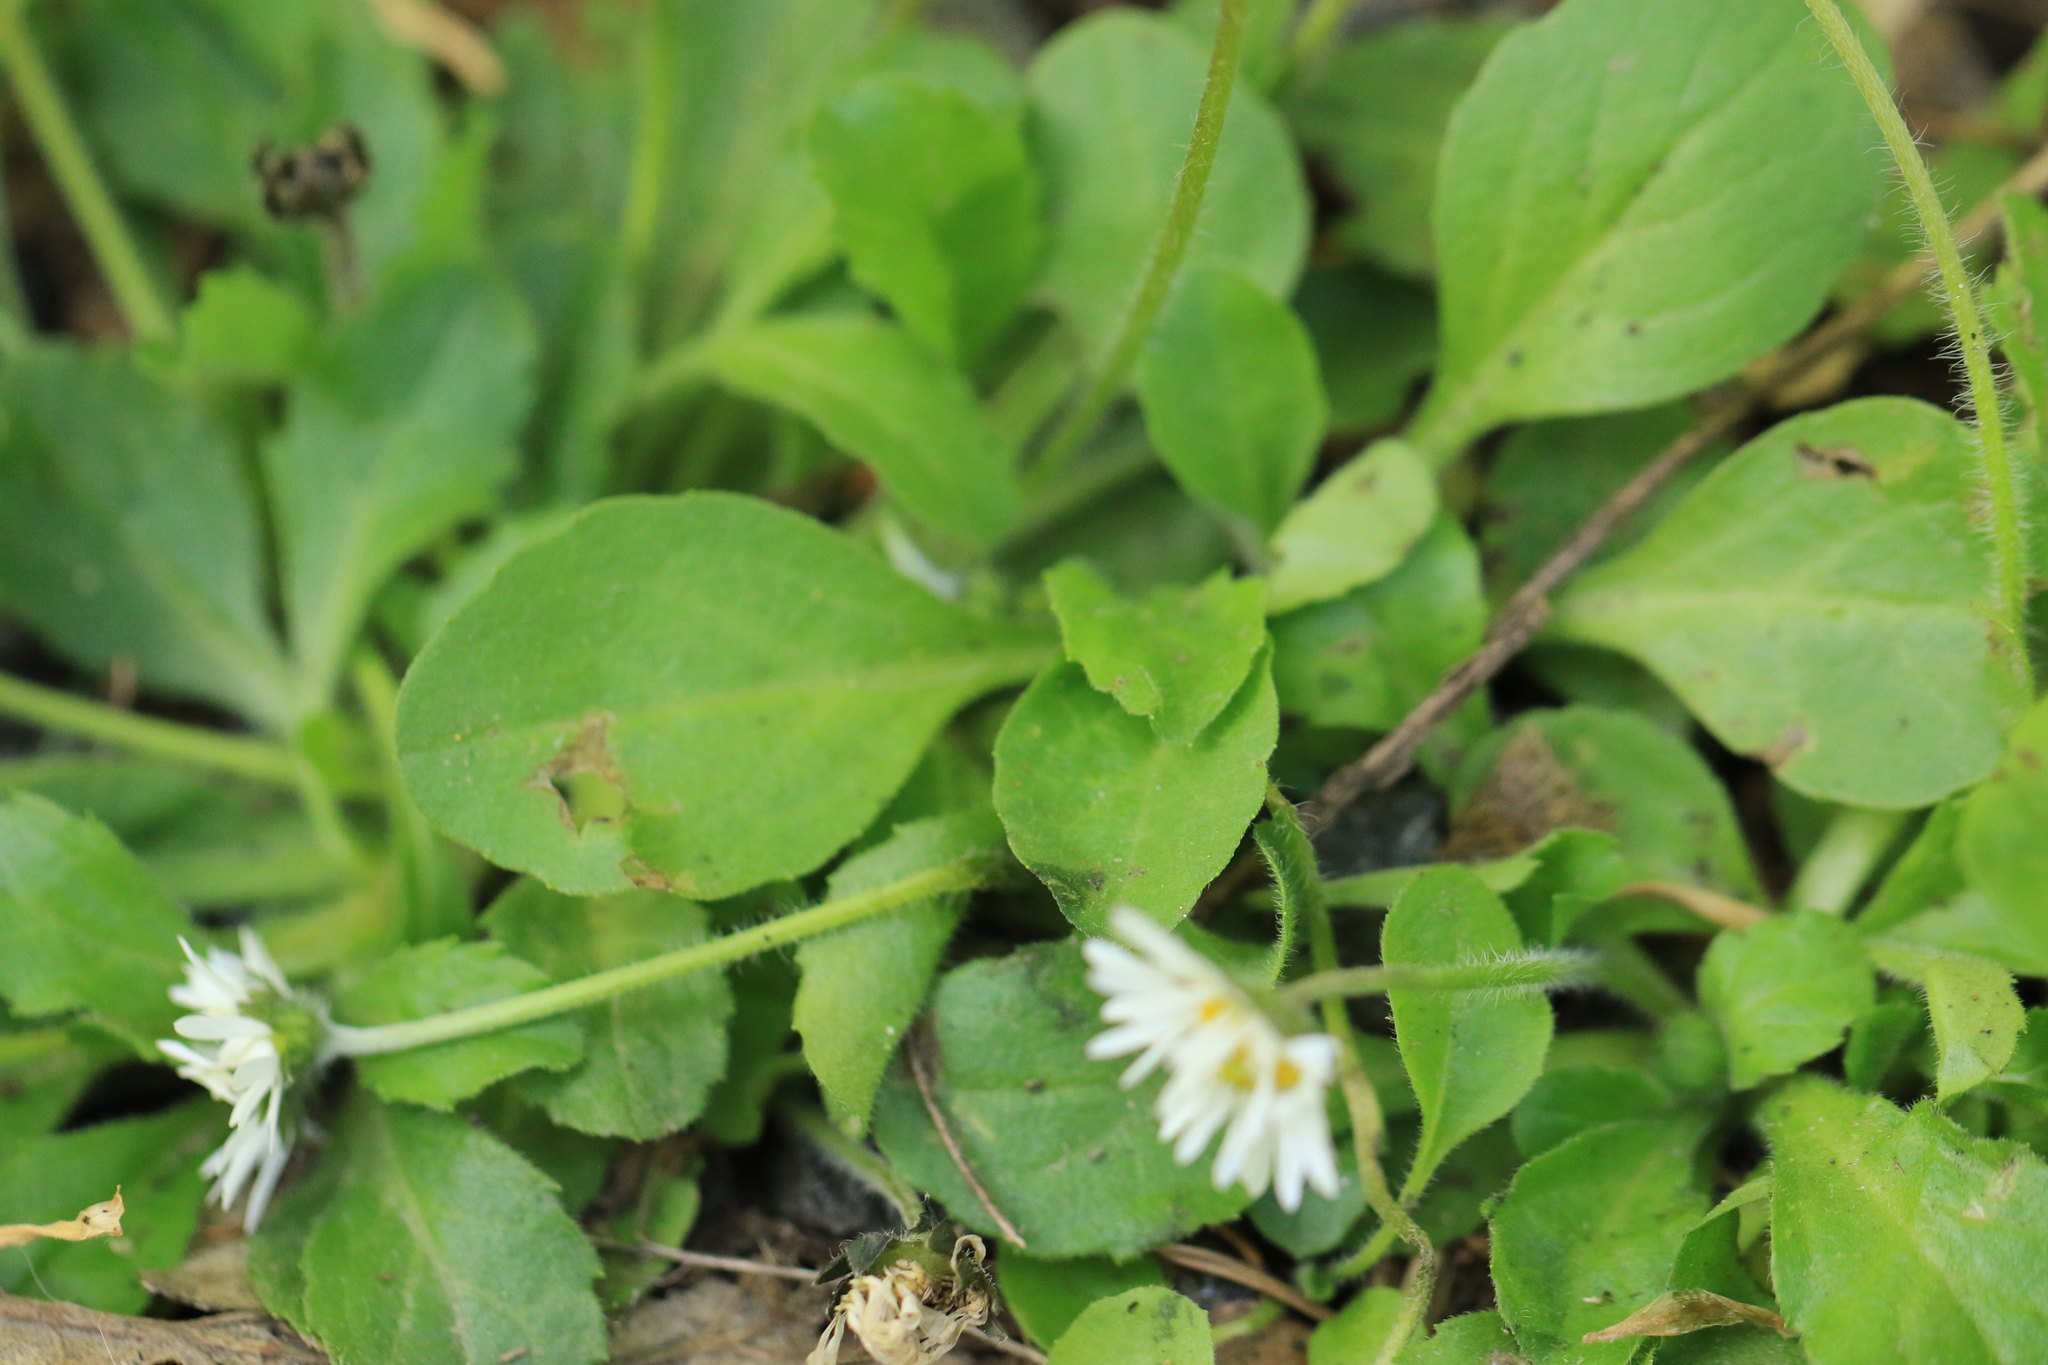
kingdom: Plantae
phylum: Tracheophyta
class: Magnoliopsida
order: Asterales
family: Asteraceae
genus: Bellis
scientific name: Bellis perennis
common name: Lawndaisy
